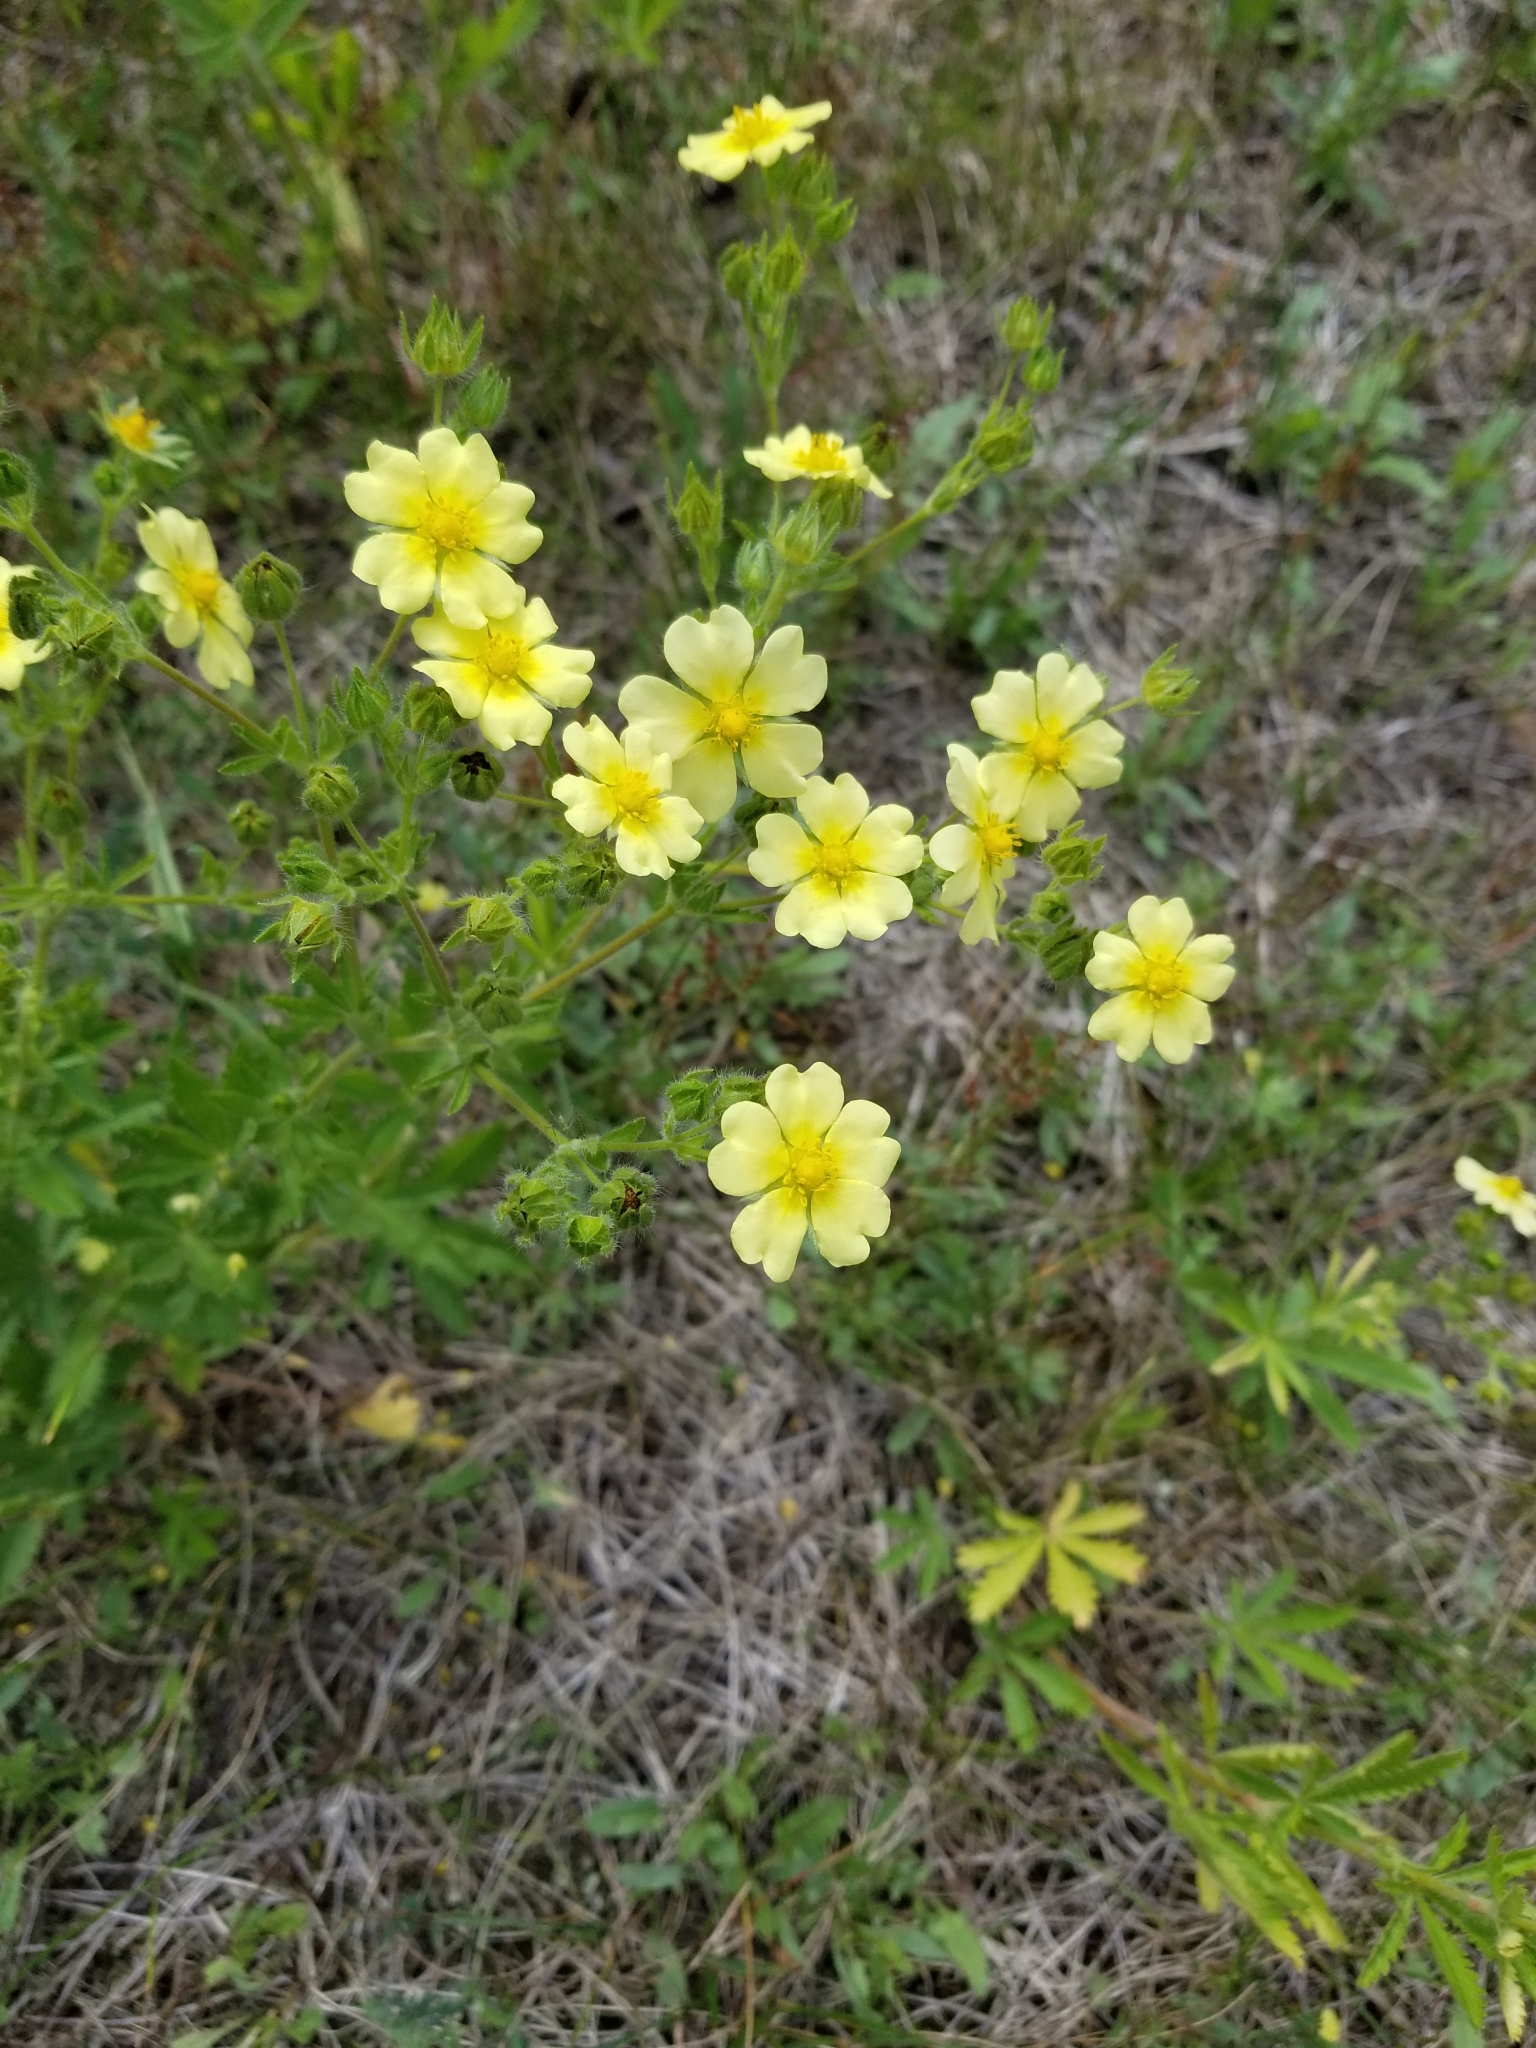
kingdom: Plantae
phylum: Tracheophyta
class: Magnoliopsida
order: Rosales
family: Rosaceae
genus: Potentilla
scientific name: Potentilla recta
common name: Sulphur cinquefoil
